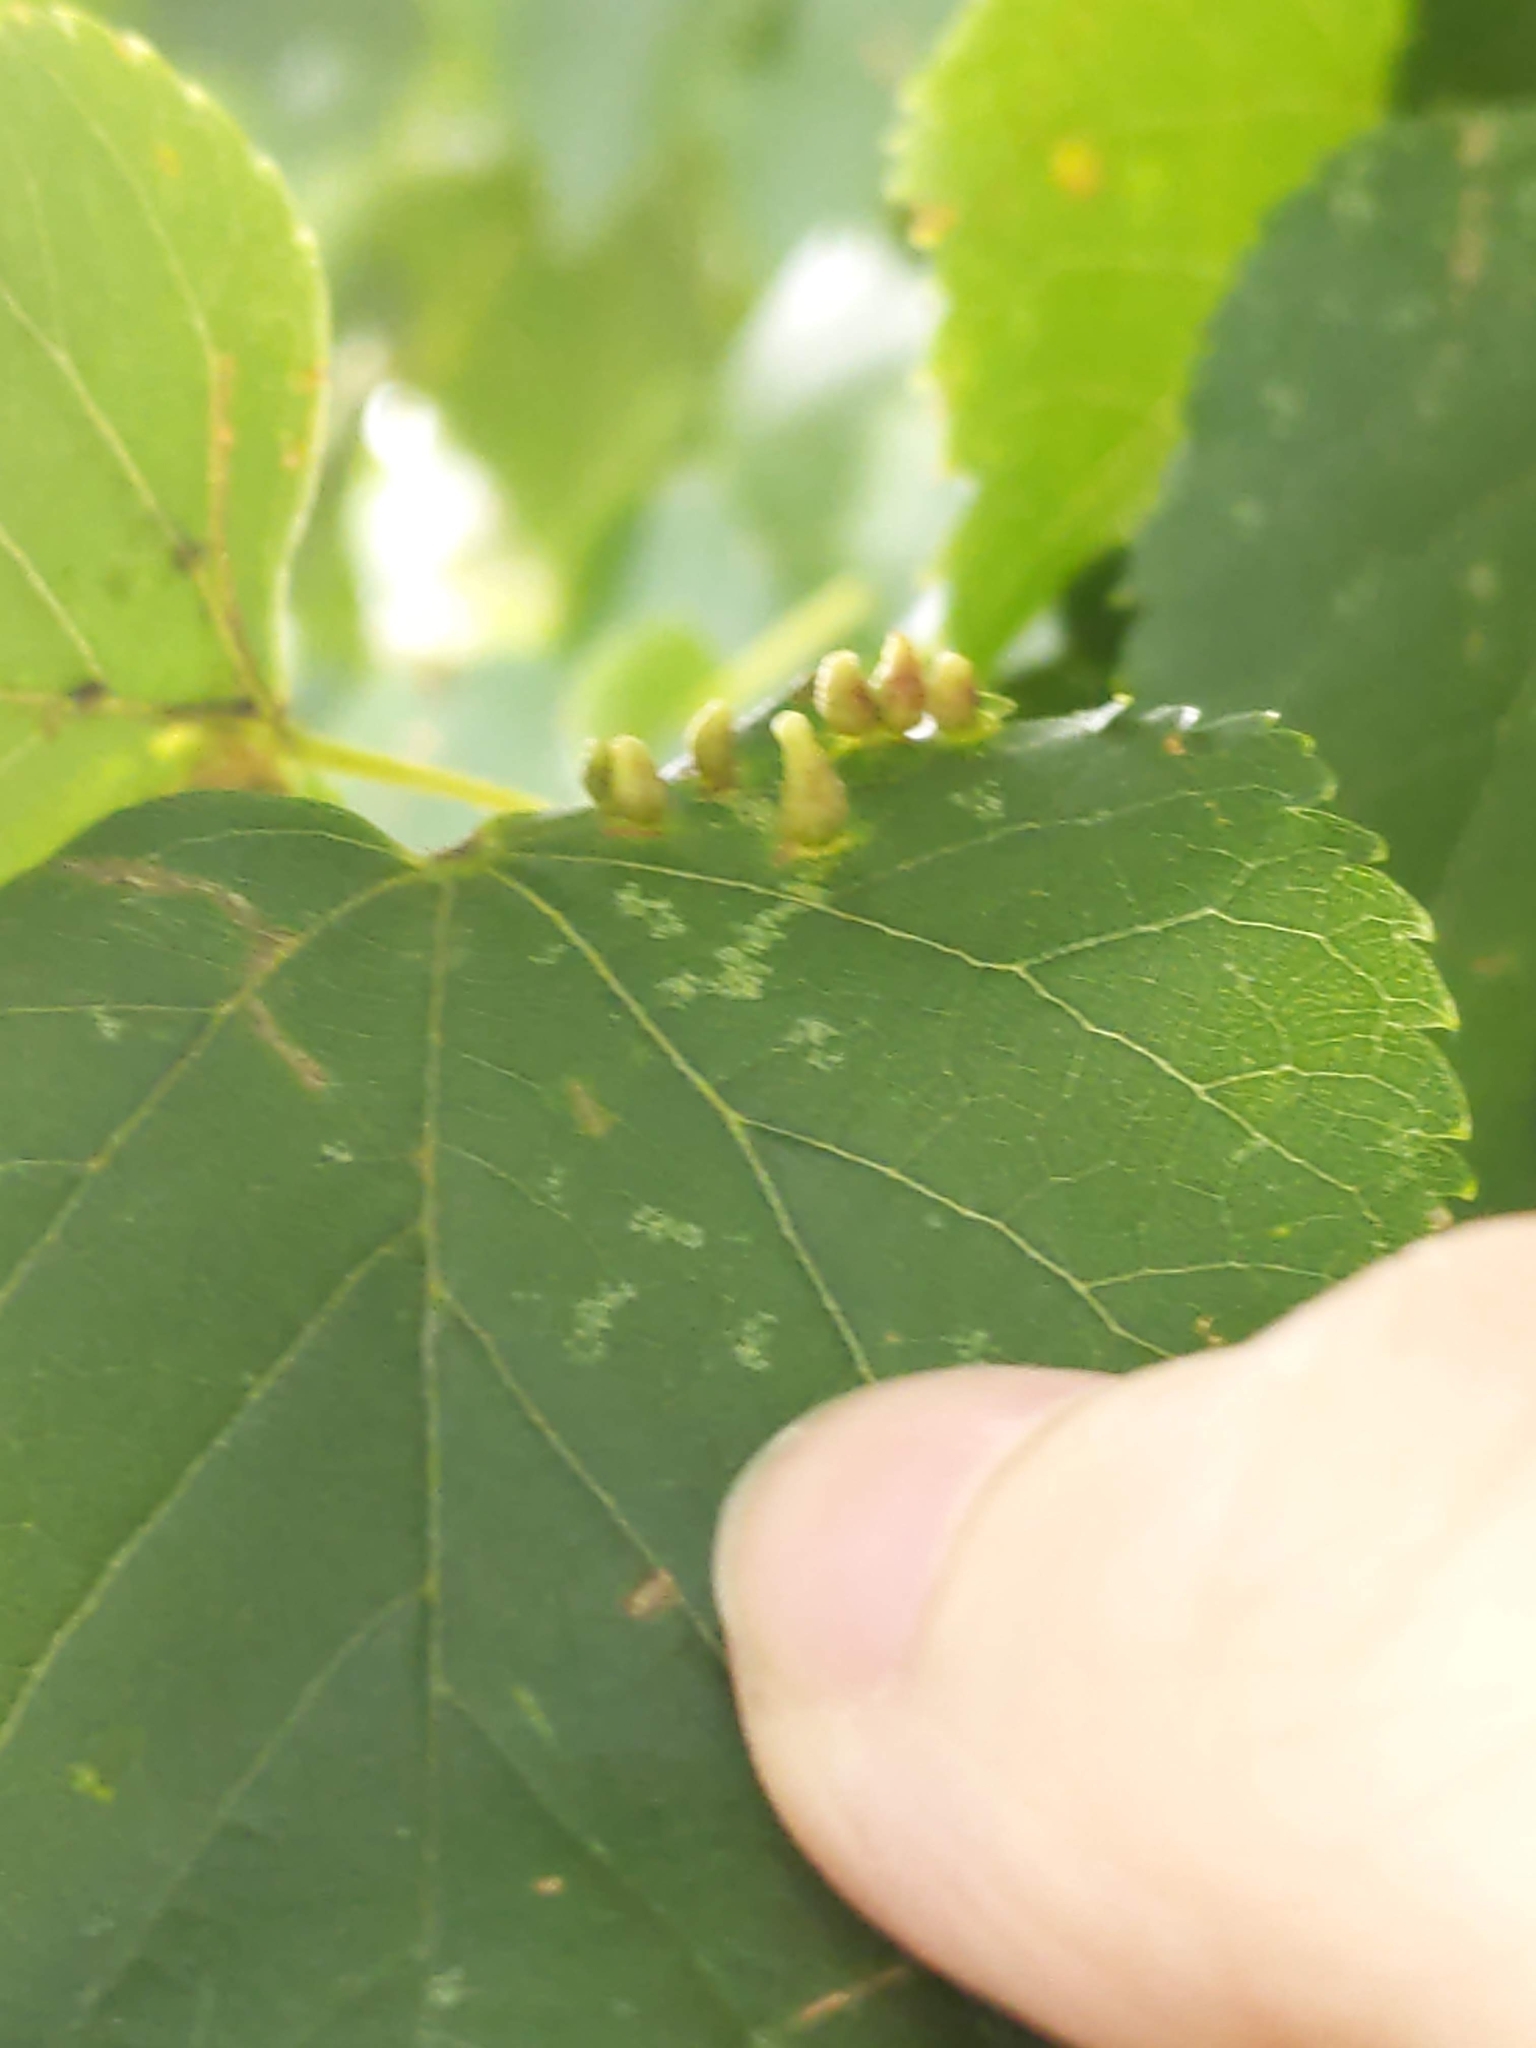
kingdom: Animalia
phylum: Arthropoda
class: Arachnida
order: Trombidiformes
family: Eriophyidae
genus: Eriophyes
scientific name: Eriophyes tiliae
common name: Red nail gall mite
